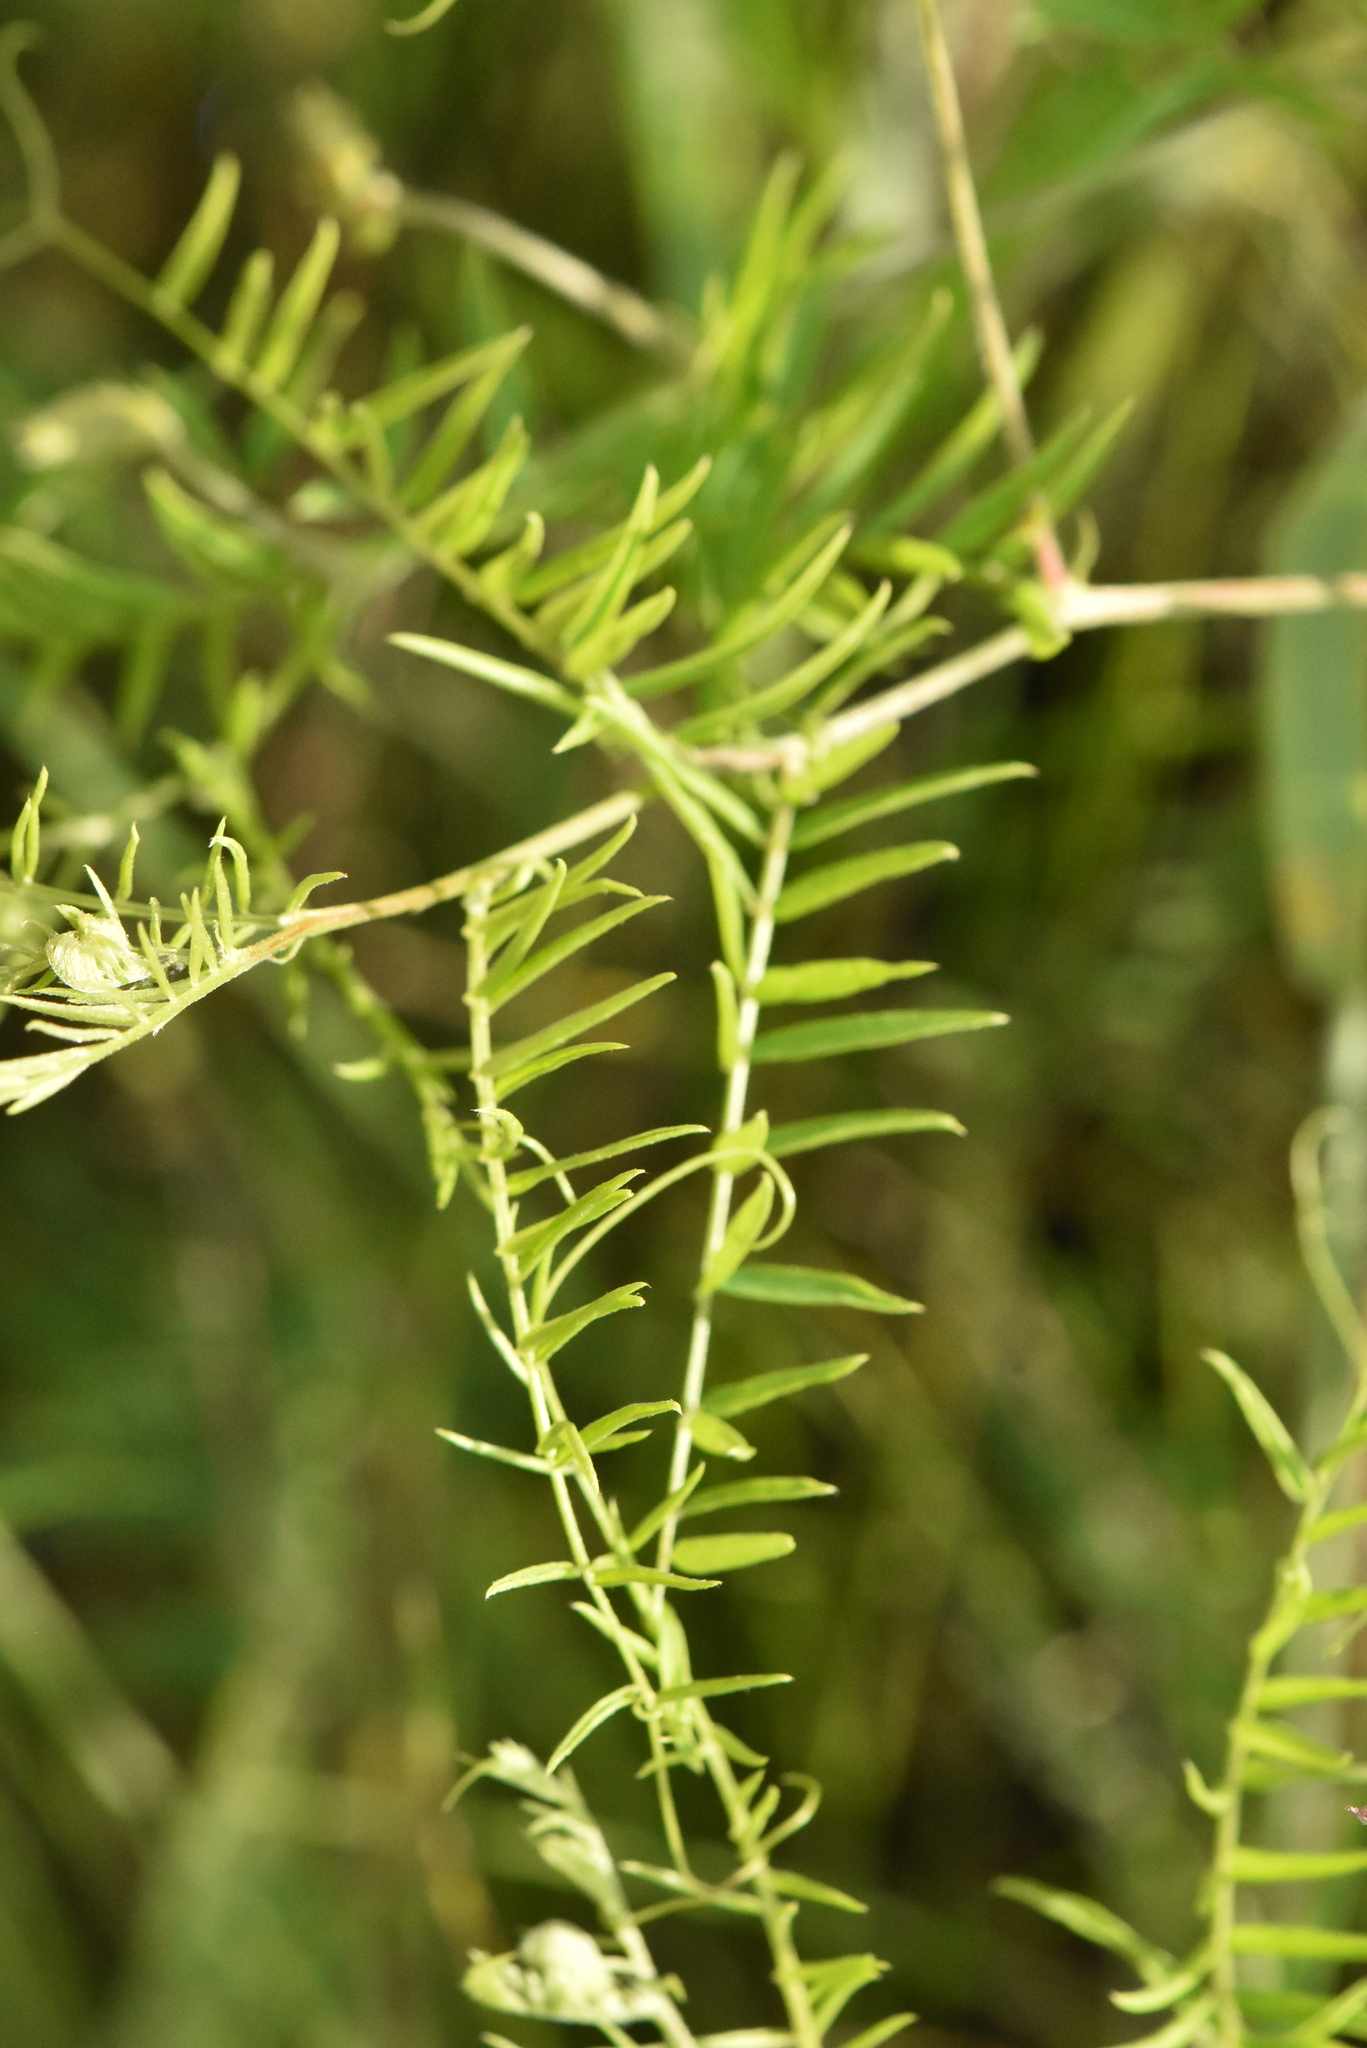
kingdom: Plantae
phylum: Tracheophyta
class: Magnoliopsida
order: Fabales
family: Fabaceae
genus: Vicia
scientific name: Vicia megalotropis
